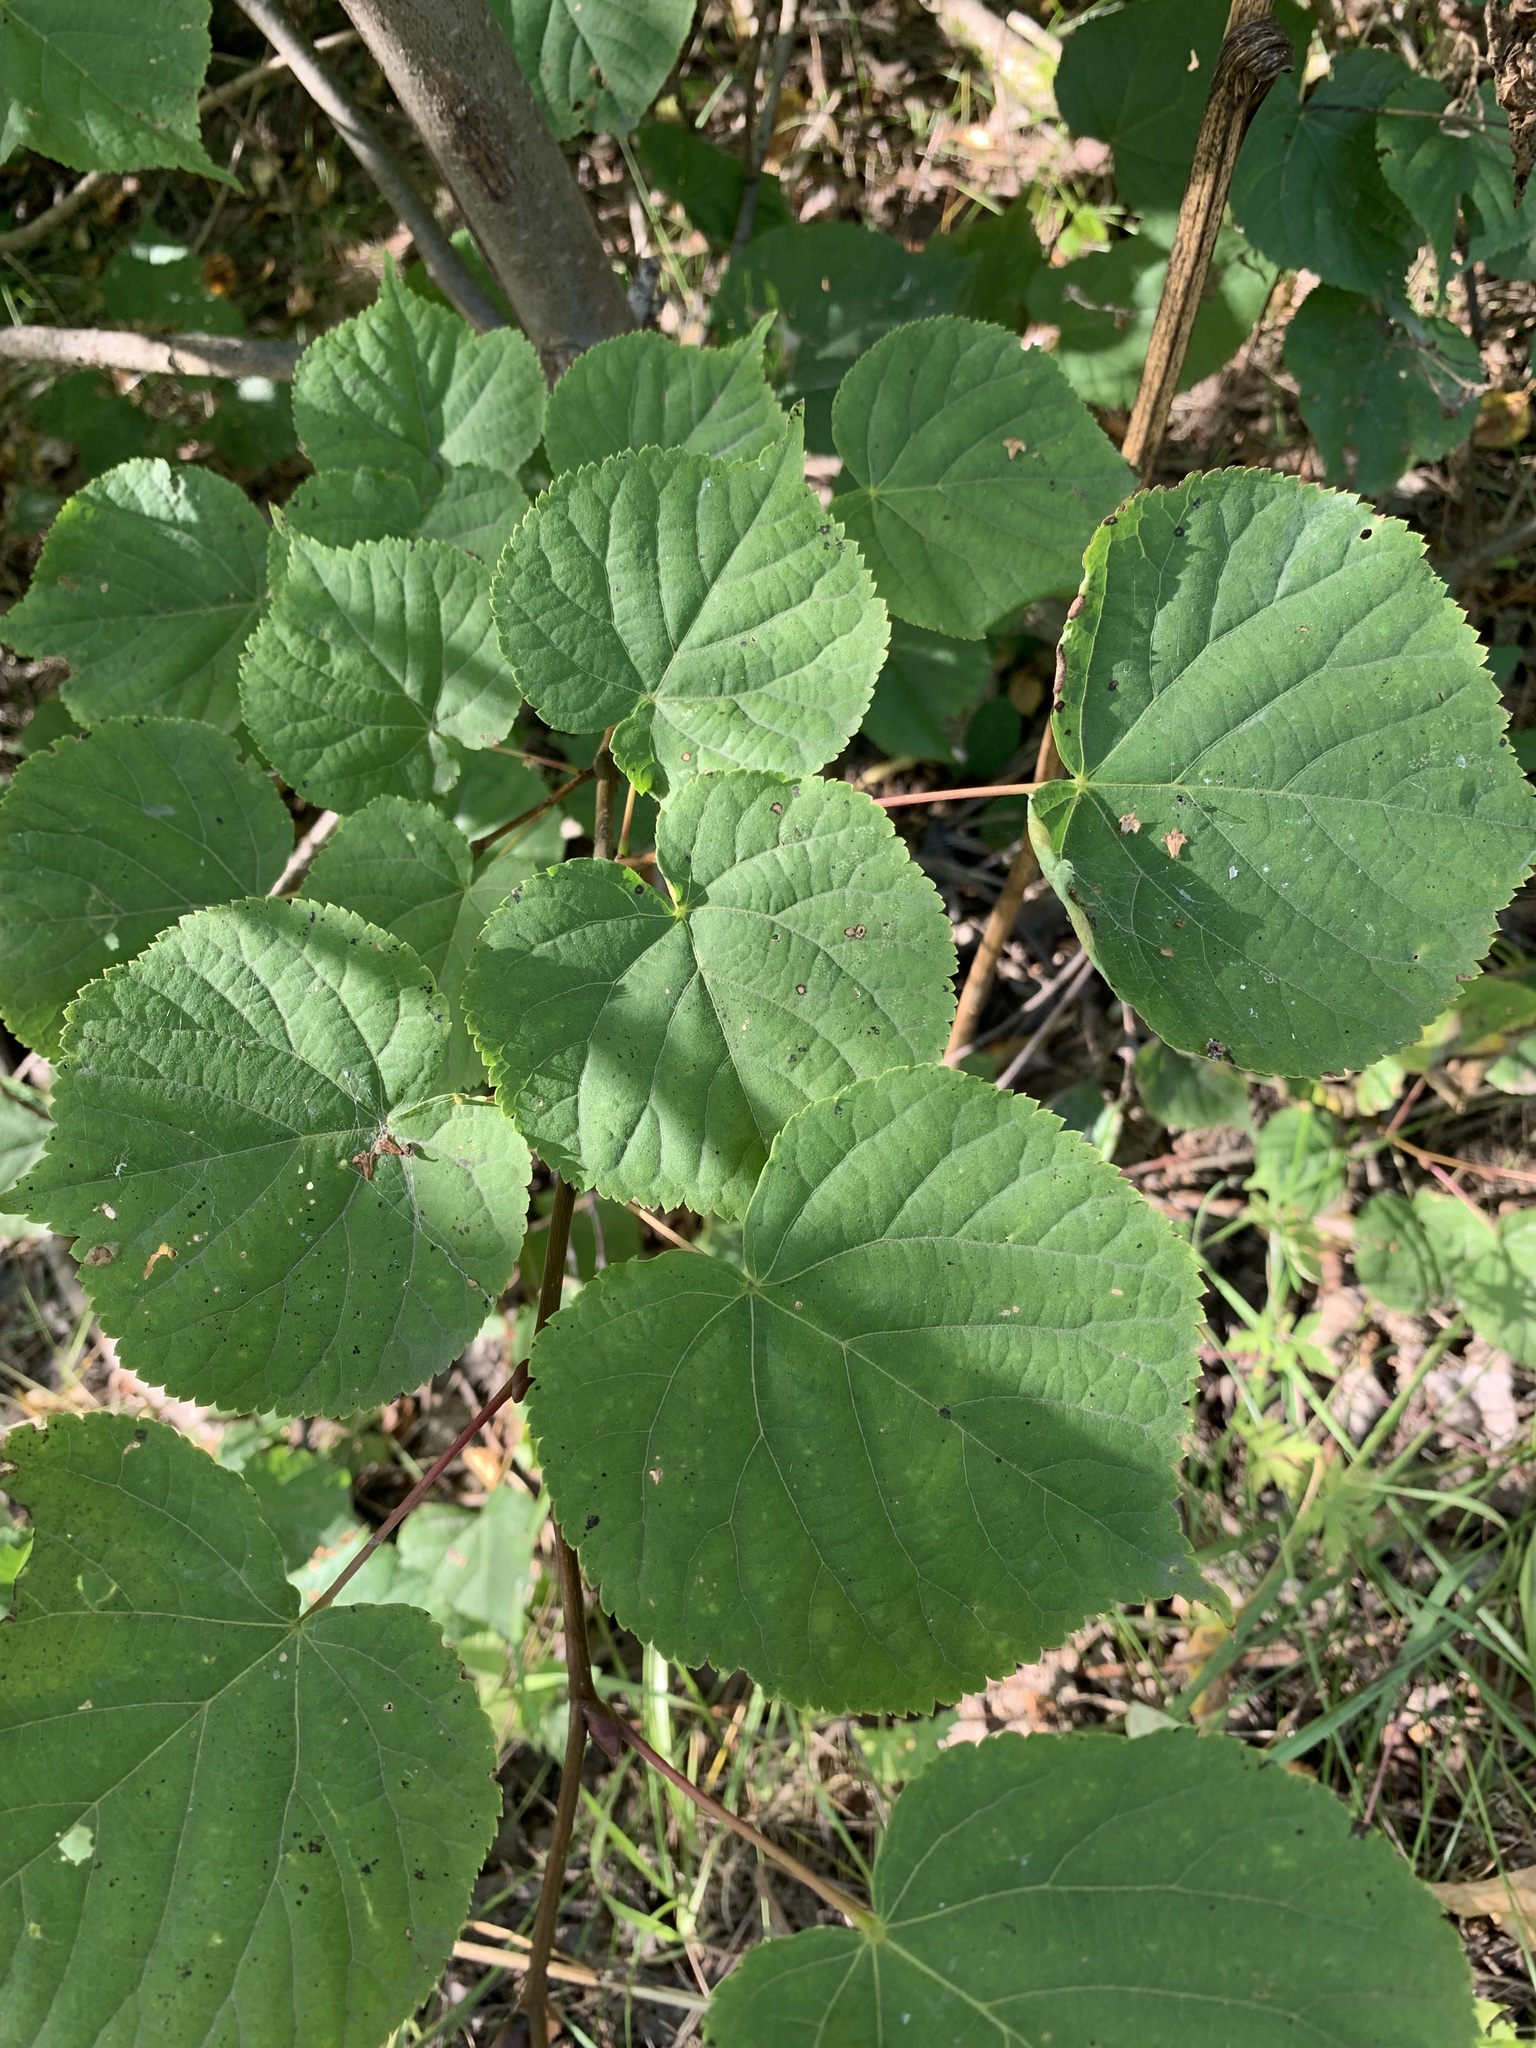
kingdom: Plantae
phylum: Tracheophyta
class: Magnoliopsida
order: Malvales
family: Malvaceae
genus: Tilia
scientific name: Tilia cordata
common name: Small-leaved lime
